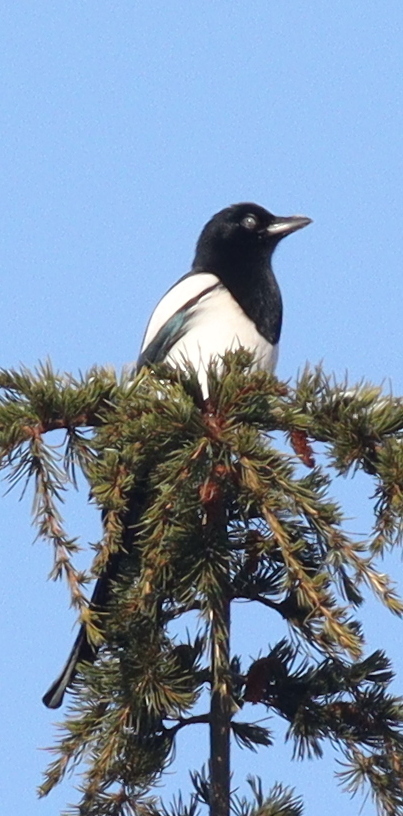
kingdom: Animalia
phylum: Chordata
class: Aves
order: Passeriformes
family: Corvidae
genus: Pica
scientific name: Pica pica
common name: Eurasian magpie
